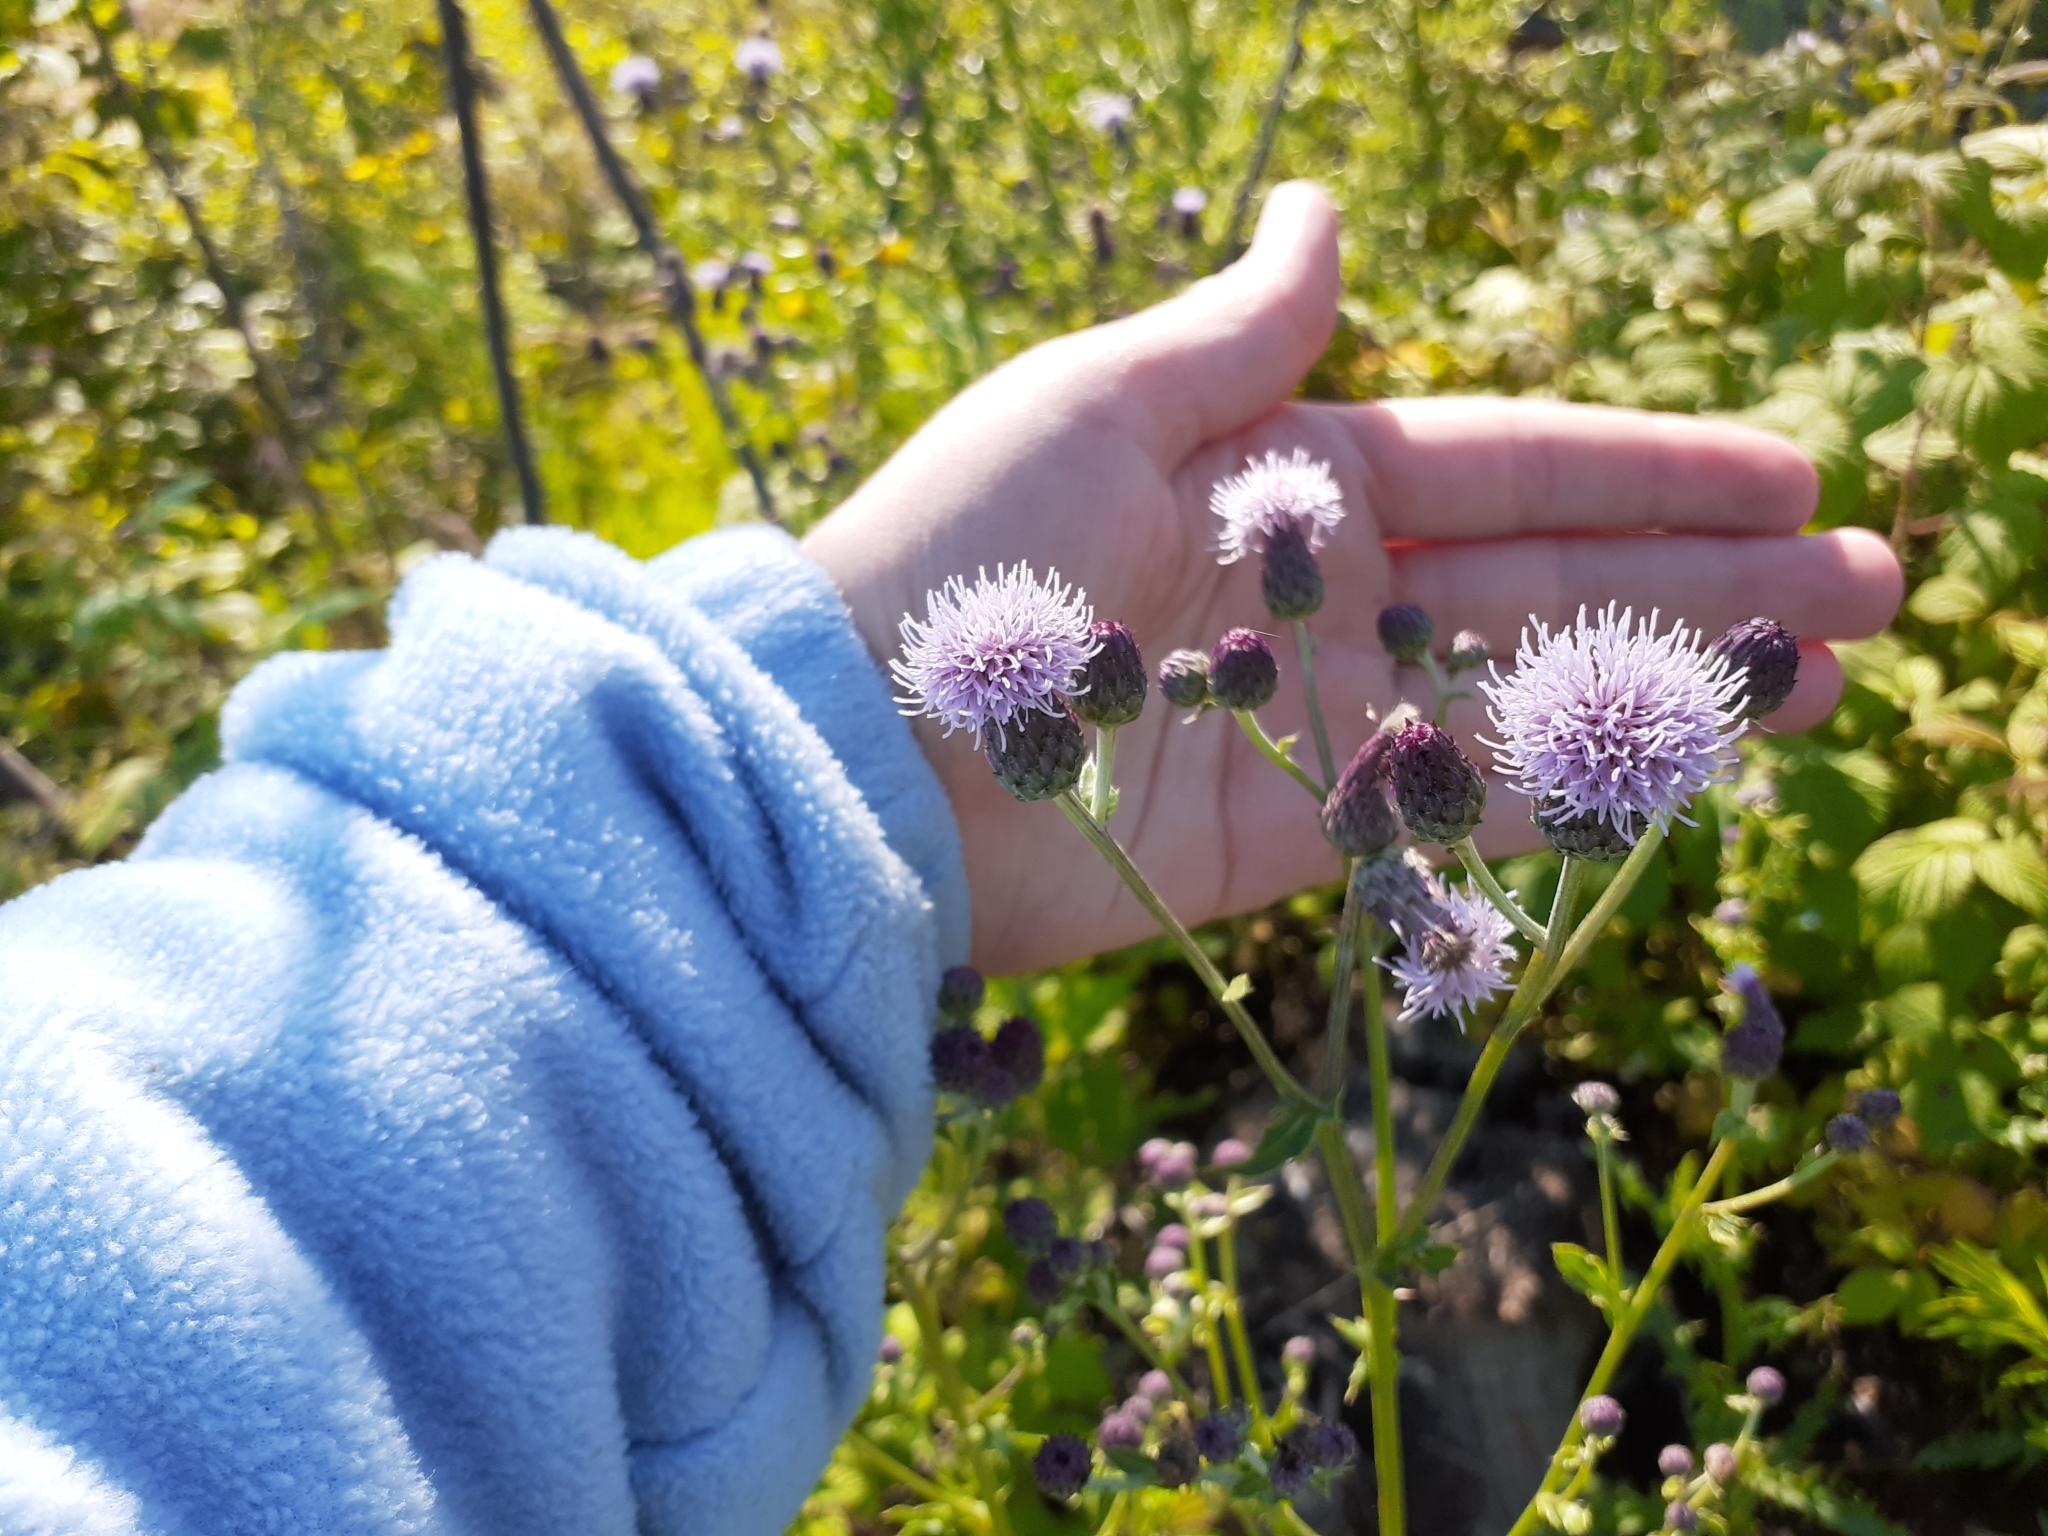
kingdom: Plantae
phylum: Tracheophyta
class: Magnoliopsida
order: Asterales
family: Asteraceae
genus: Cirsium
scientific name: Cirsium arvense
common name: Creeping thistle
